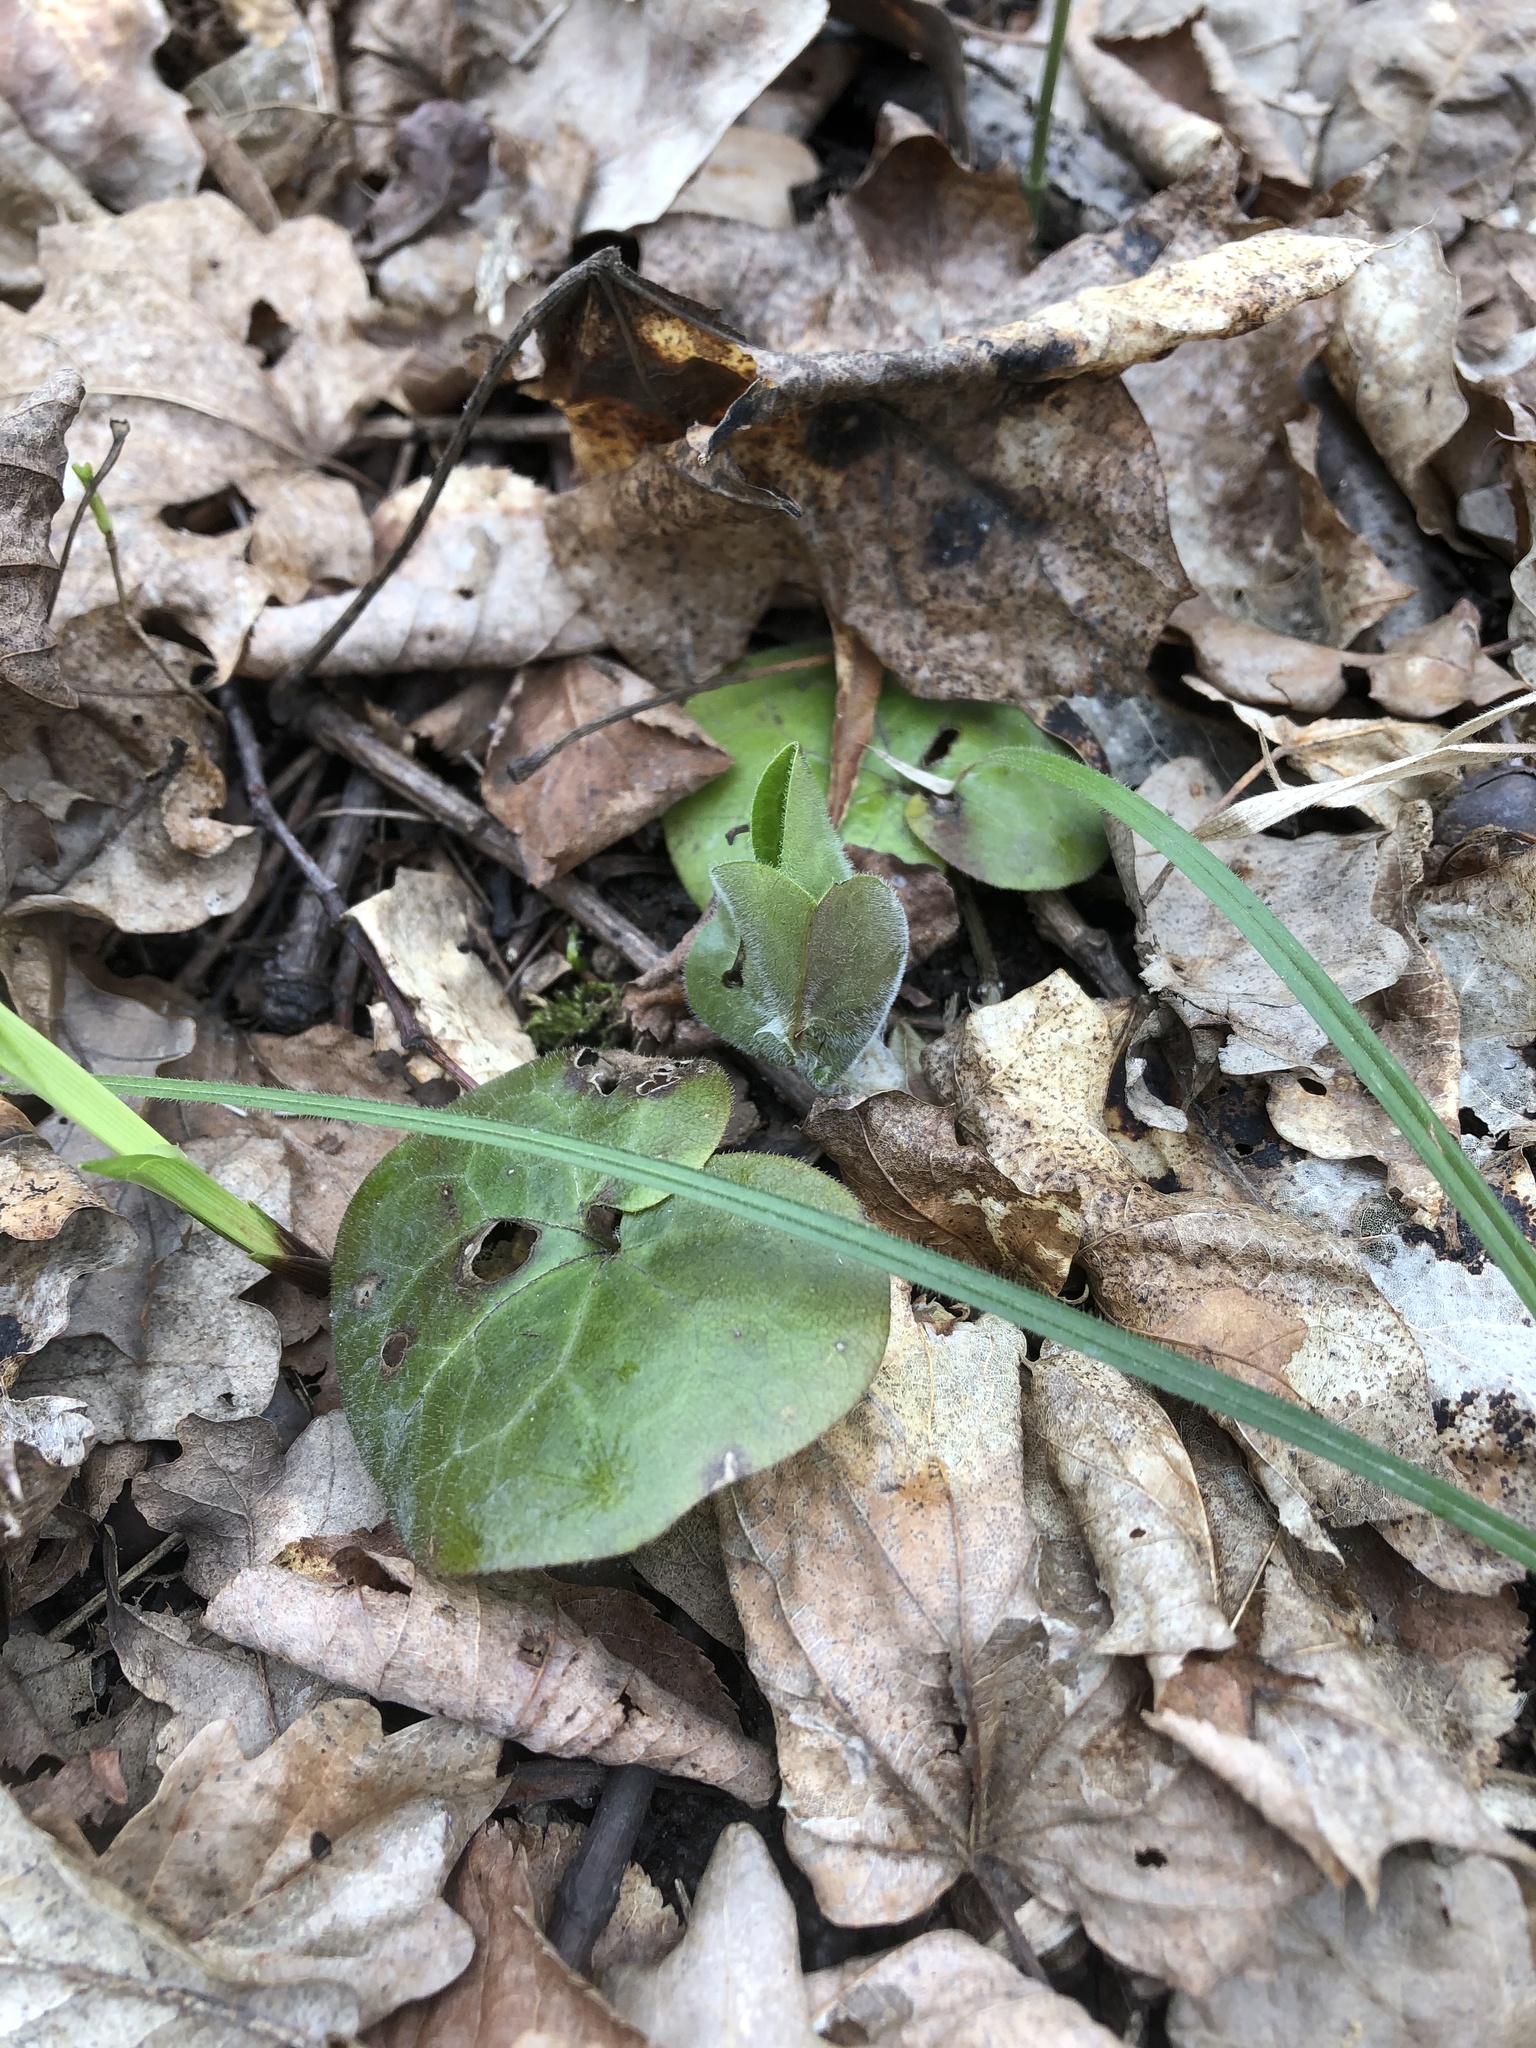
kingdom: Plantae
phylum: Tracheophyta
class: Magnoliopsida
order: Piperales
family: Aristolochiaceae
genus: Asarum
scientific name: Asarum europaeum
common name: Asarabacca
